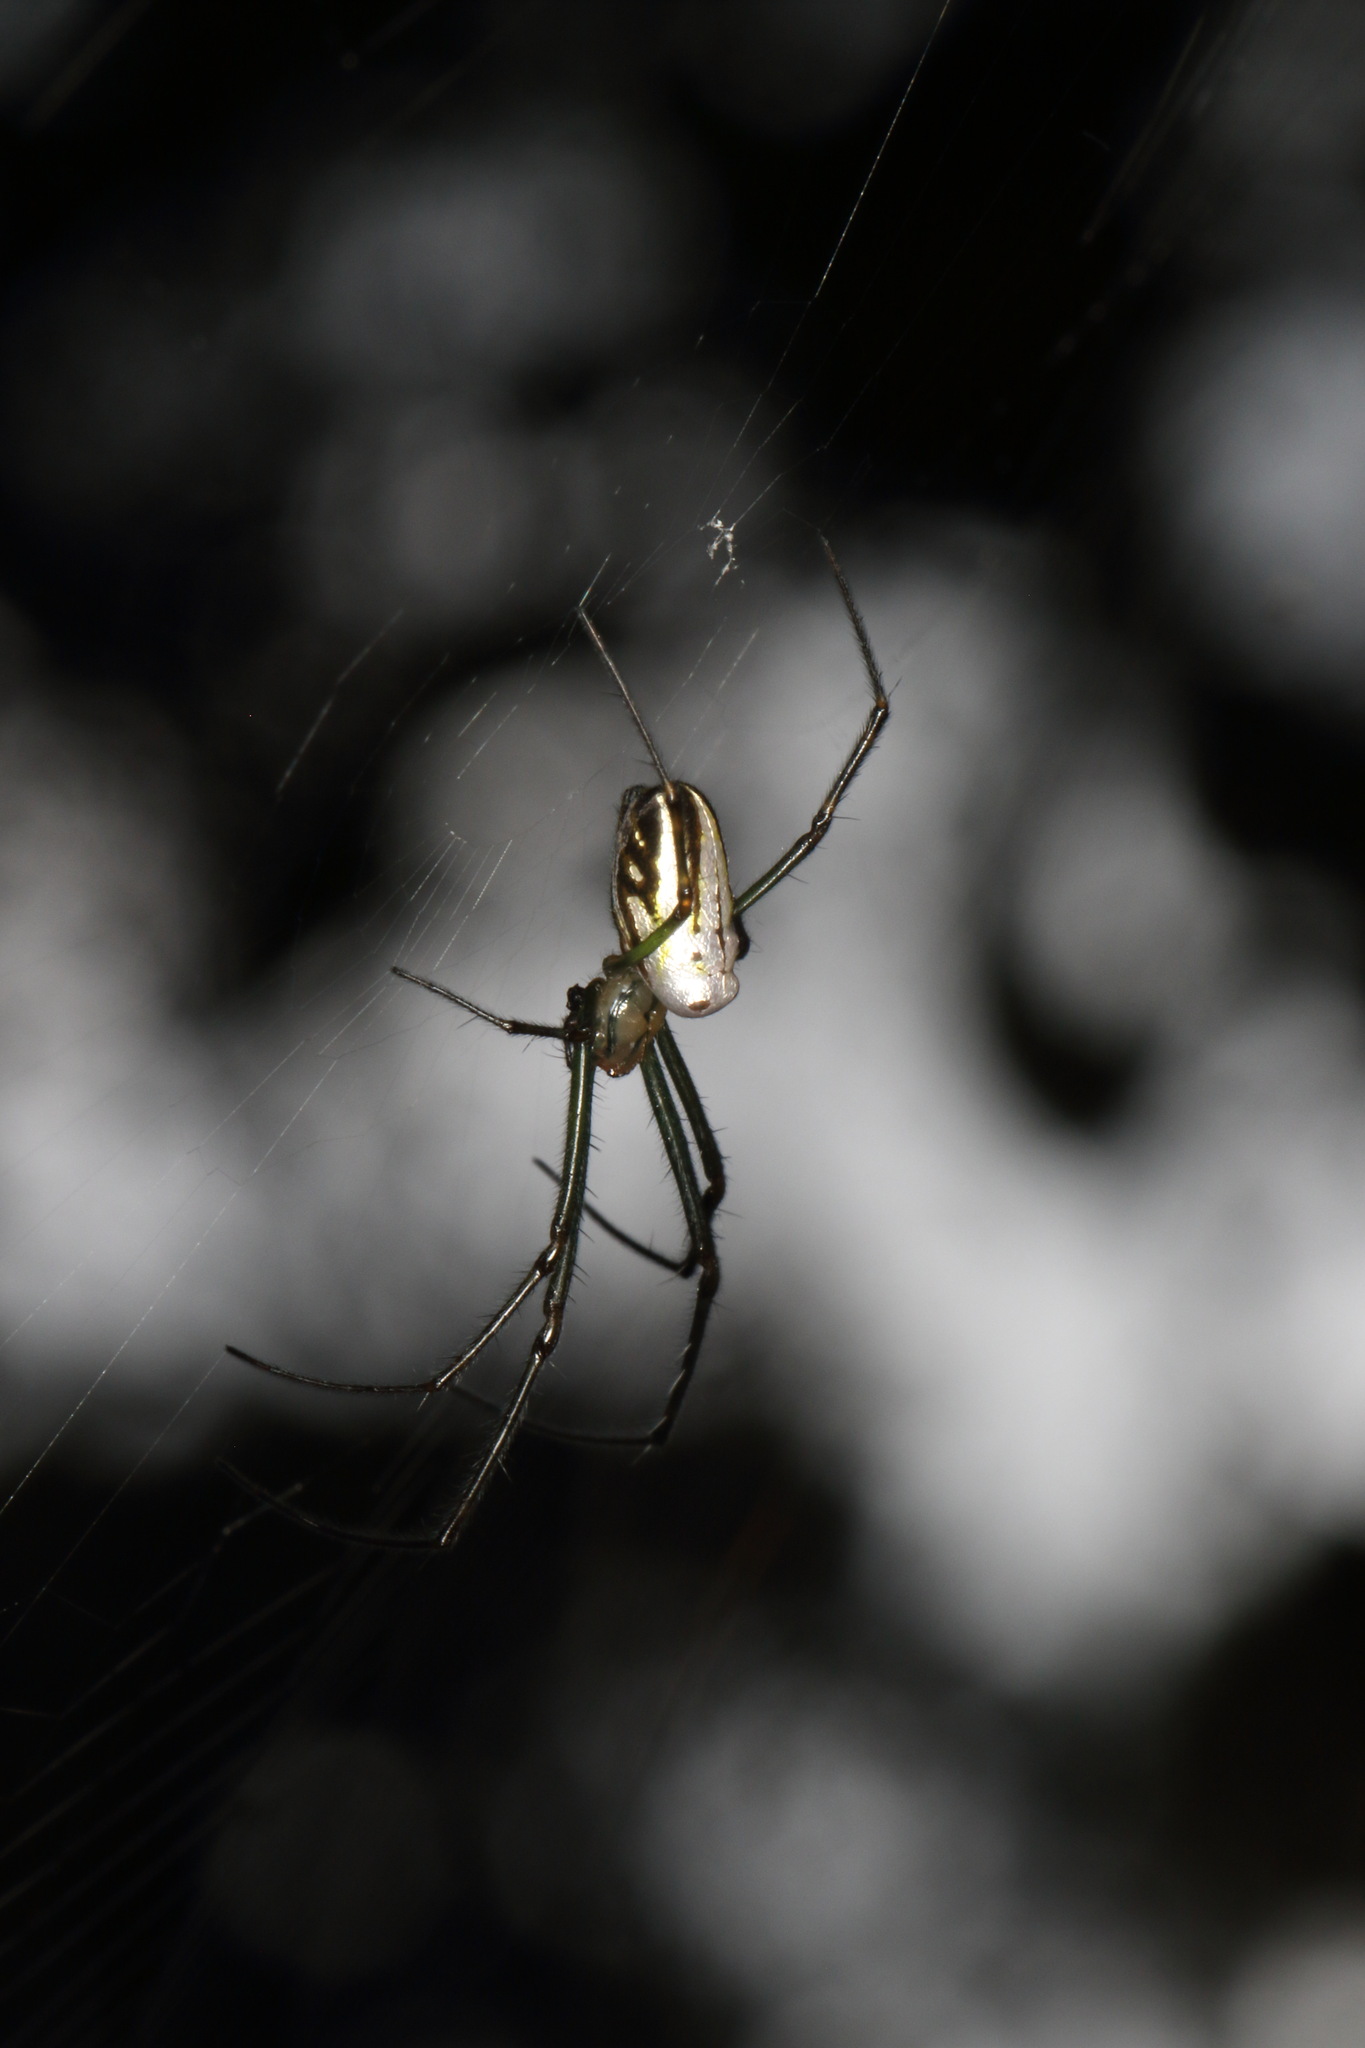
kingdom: Animalia
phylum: Arthropoda
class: Arachnida
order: Araneae
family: Tetragnathidae
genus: Leucauge
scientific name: Leucauge dromedaria
